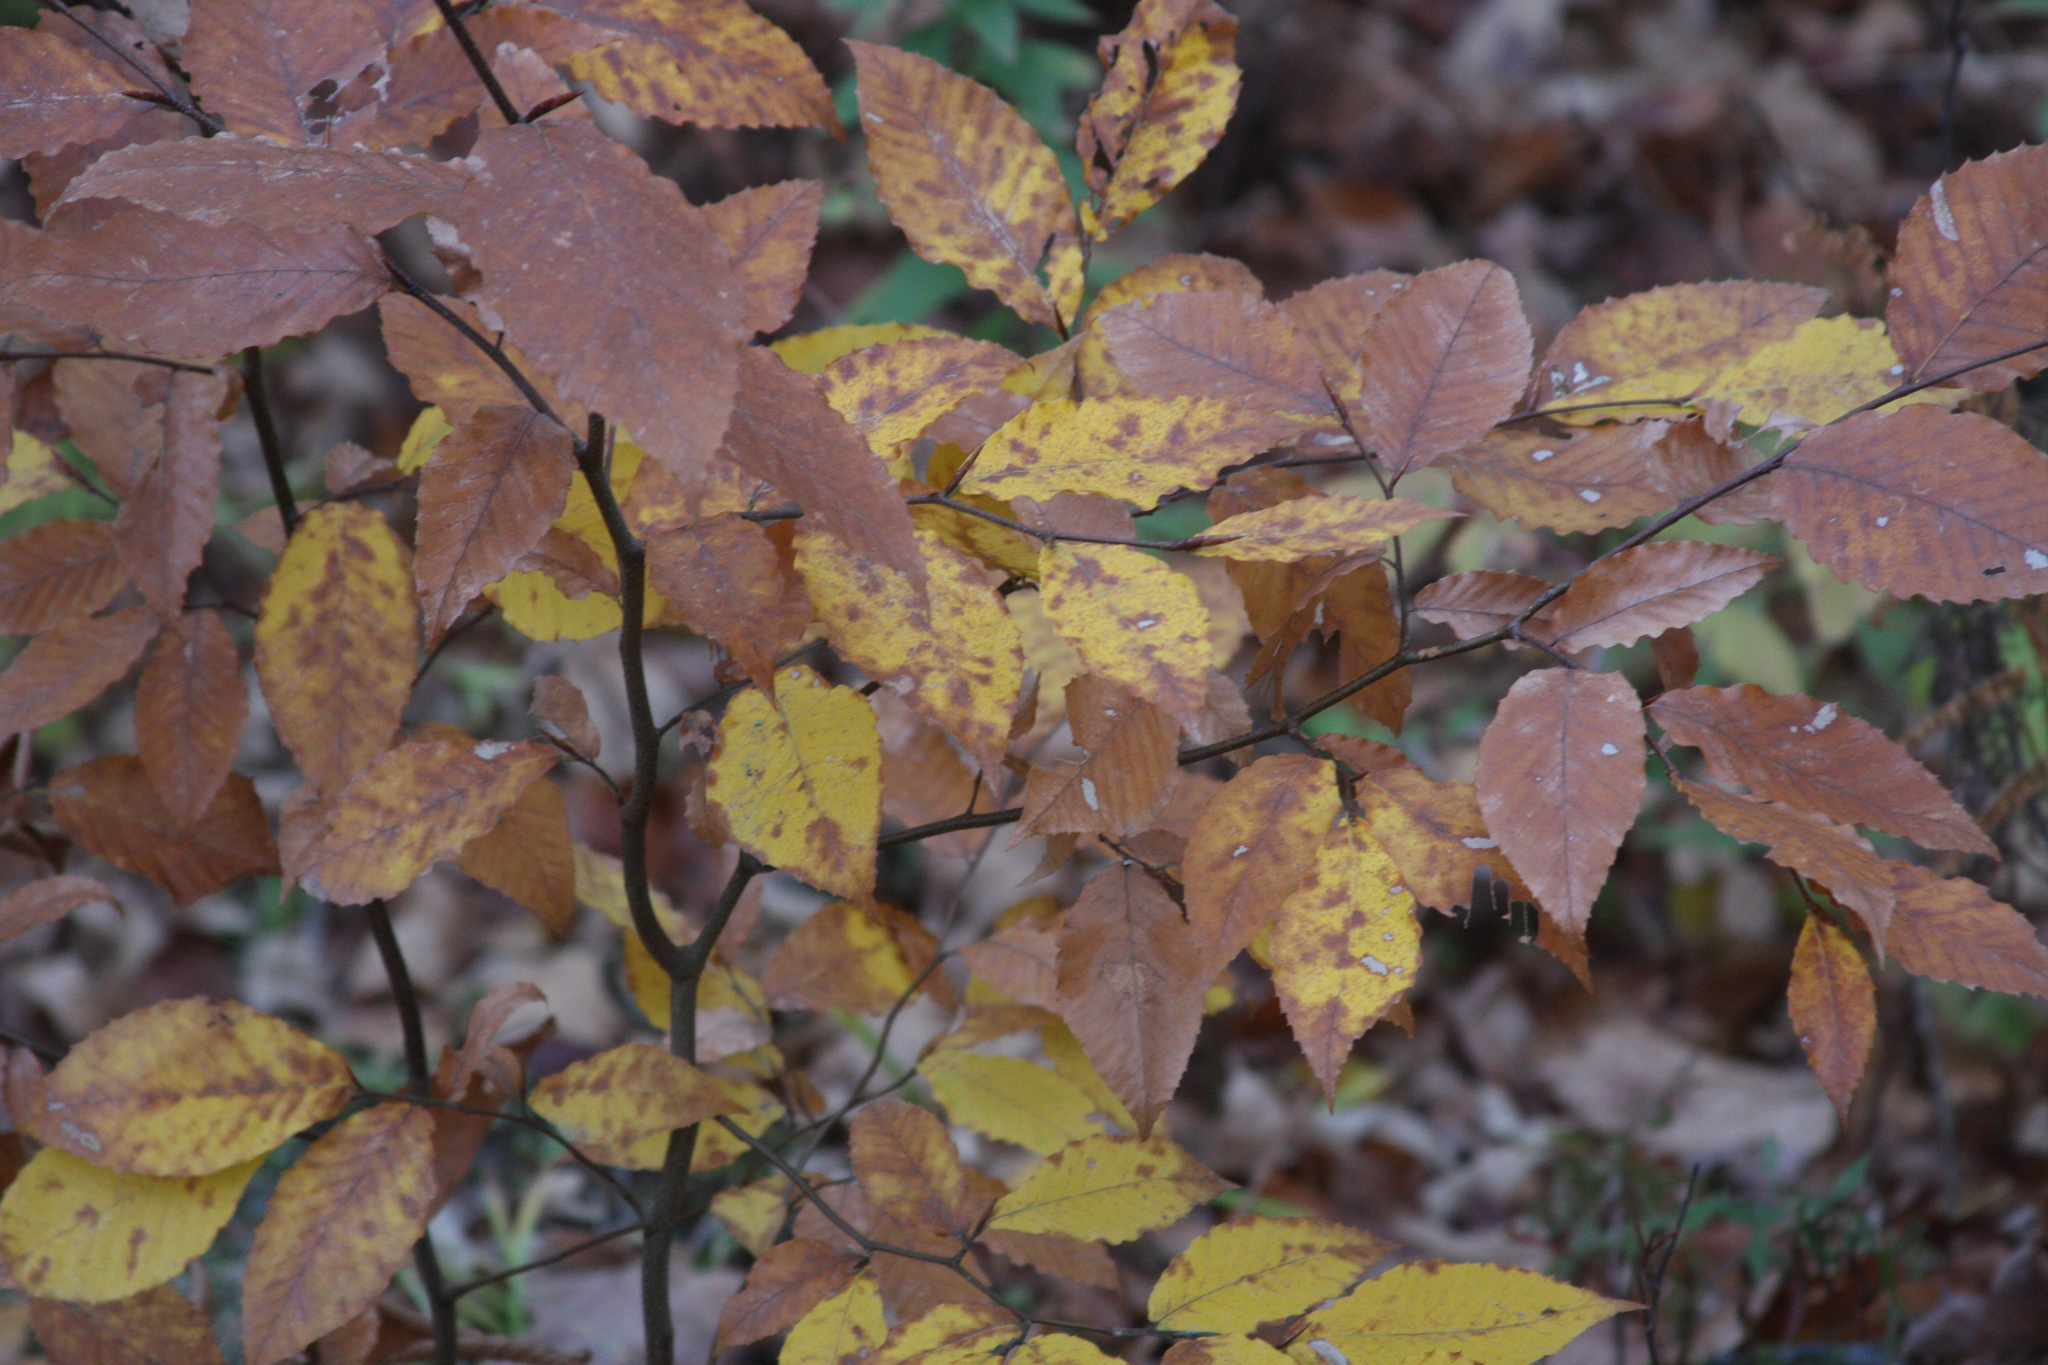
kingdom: Plantae
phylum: Tracheophyta
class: Magnoliopsida
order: Fagales
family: Fagaceae
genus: Fagus
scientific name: Fagus grandifolia
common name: American beech
